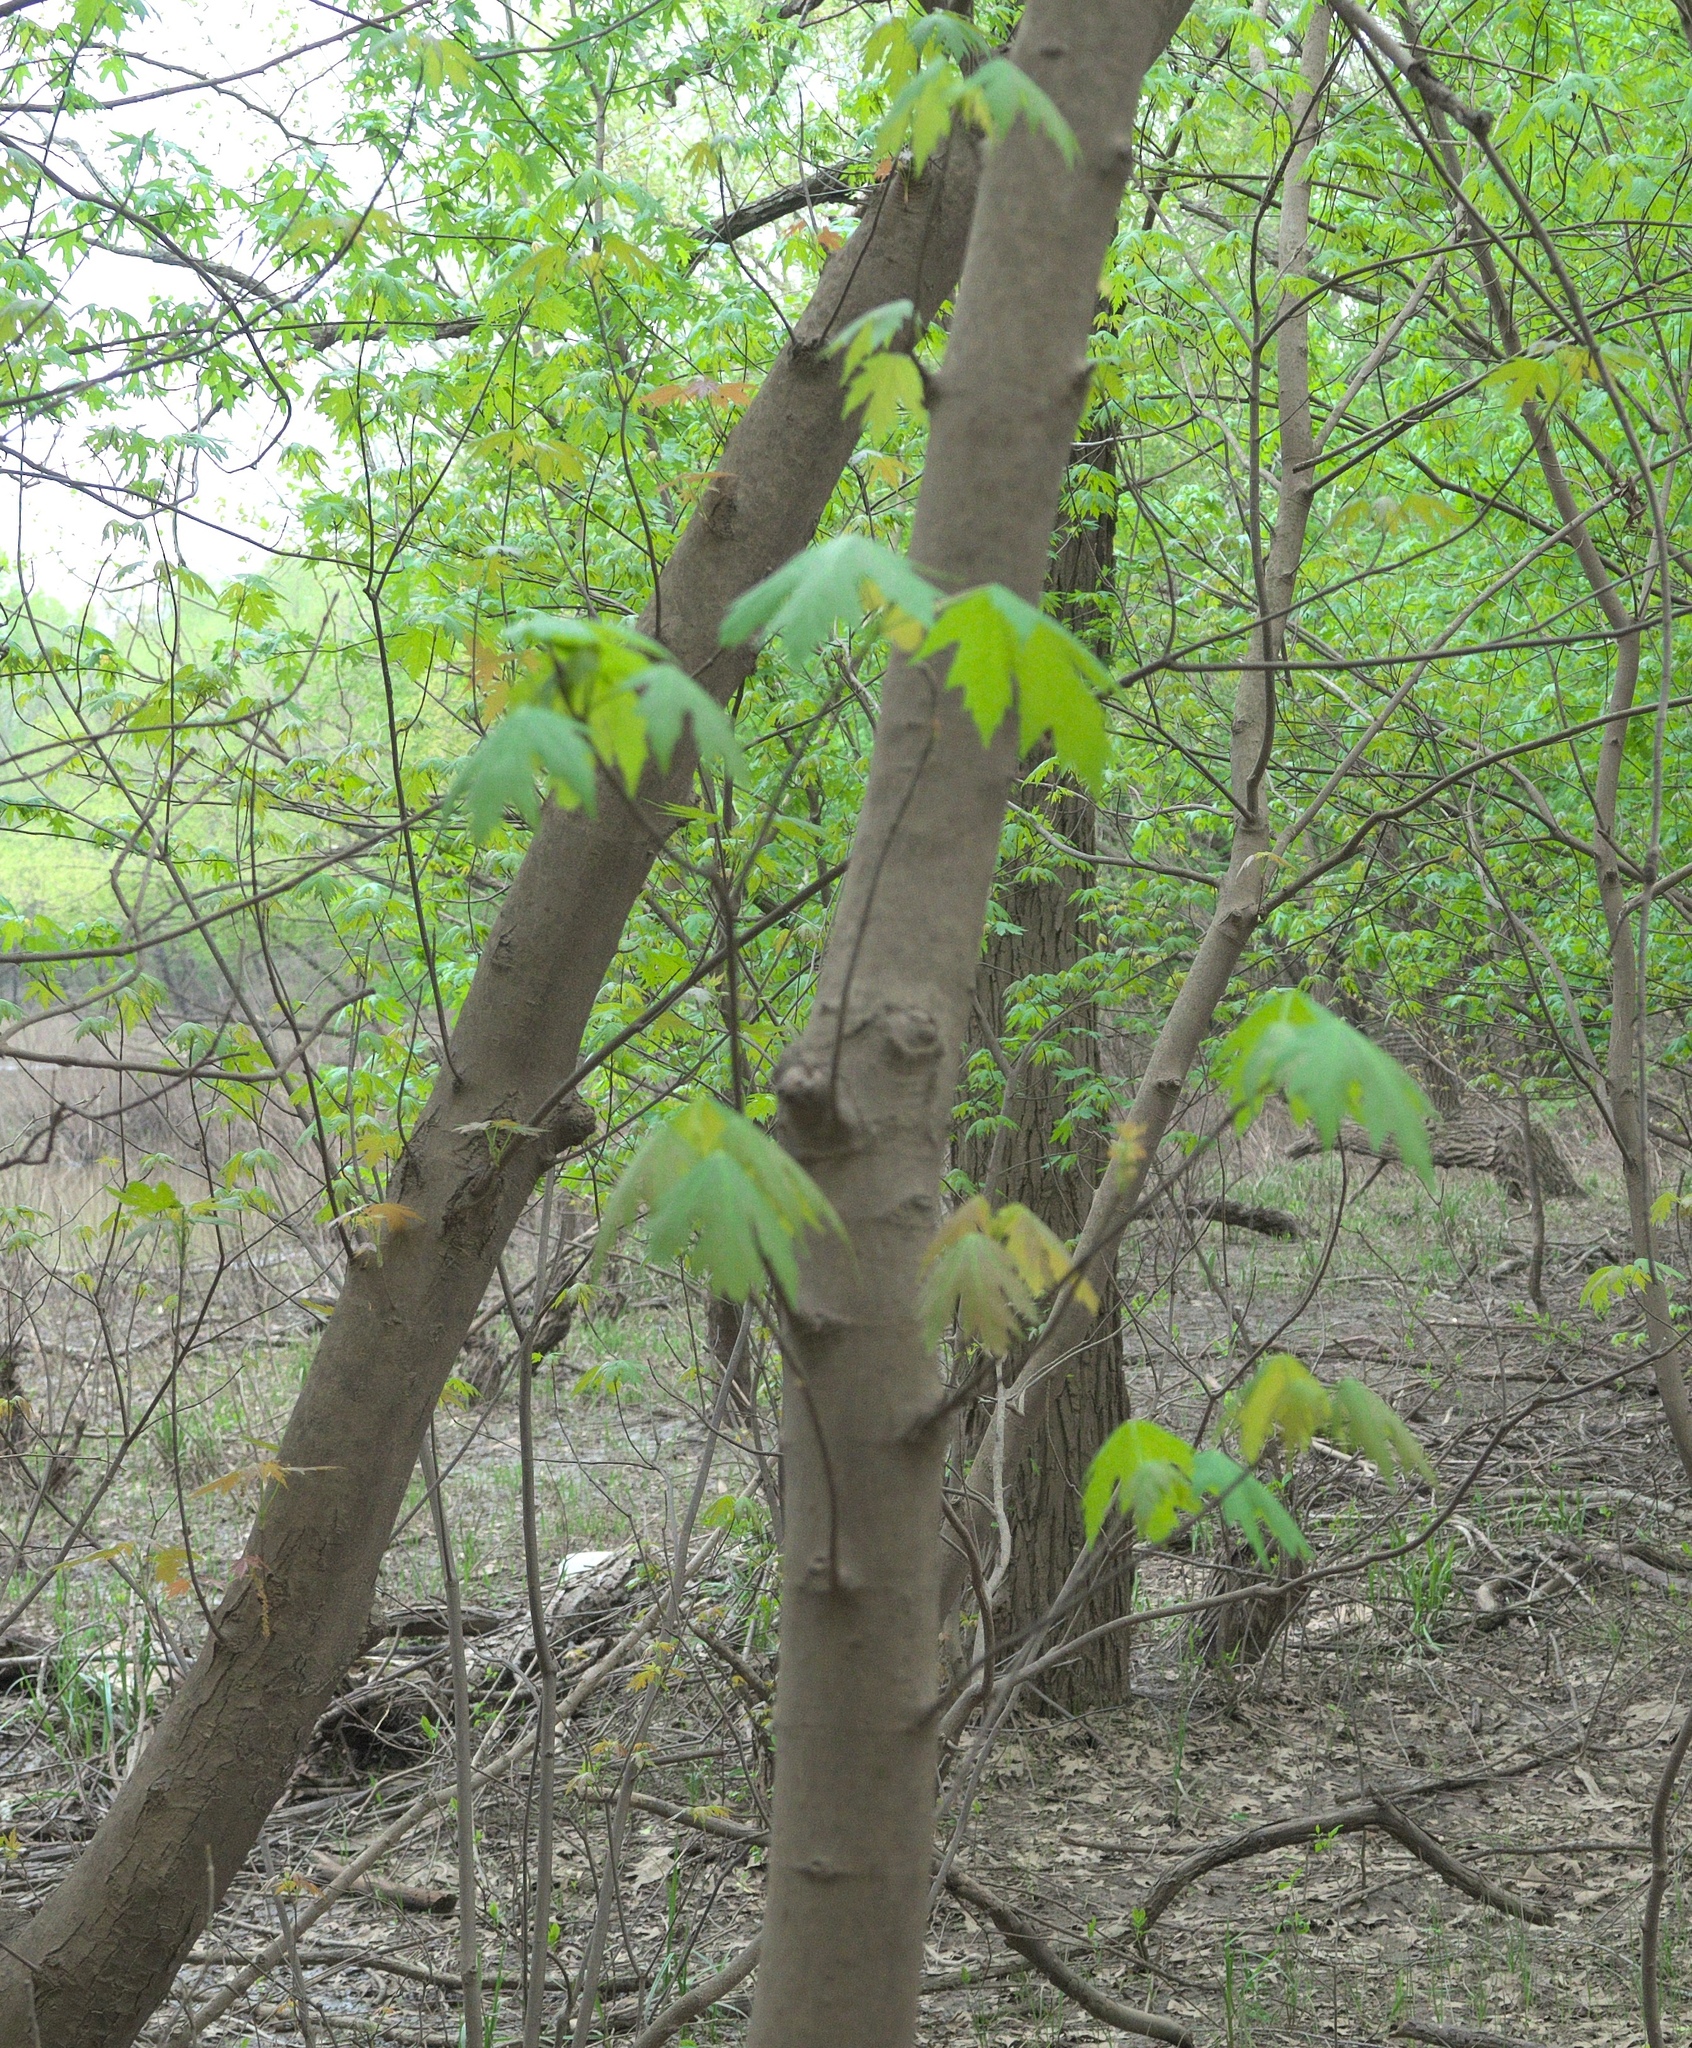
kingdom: Plantae
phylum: Tracheophyta
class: Magnoliopsida
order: Sapindales
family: Sapindaceae
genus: Acer
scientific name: Acer saccharinum
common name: Silver maple
